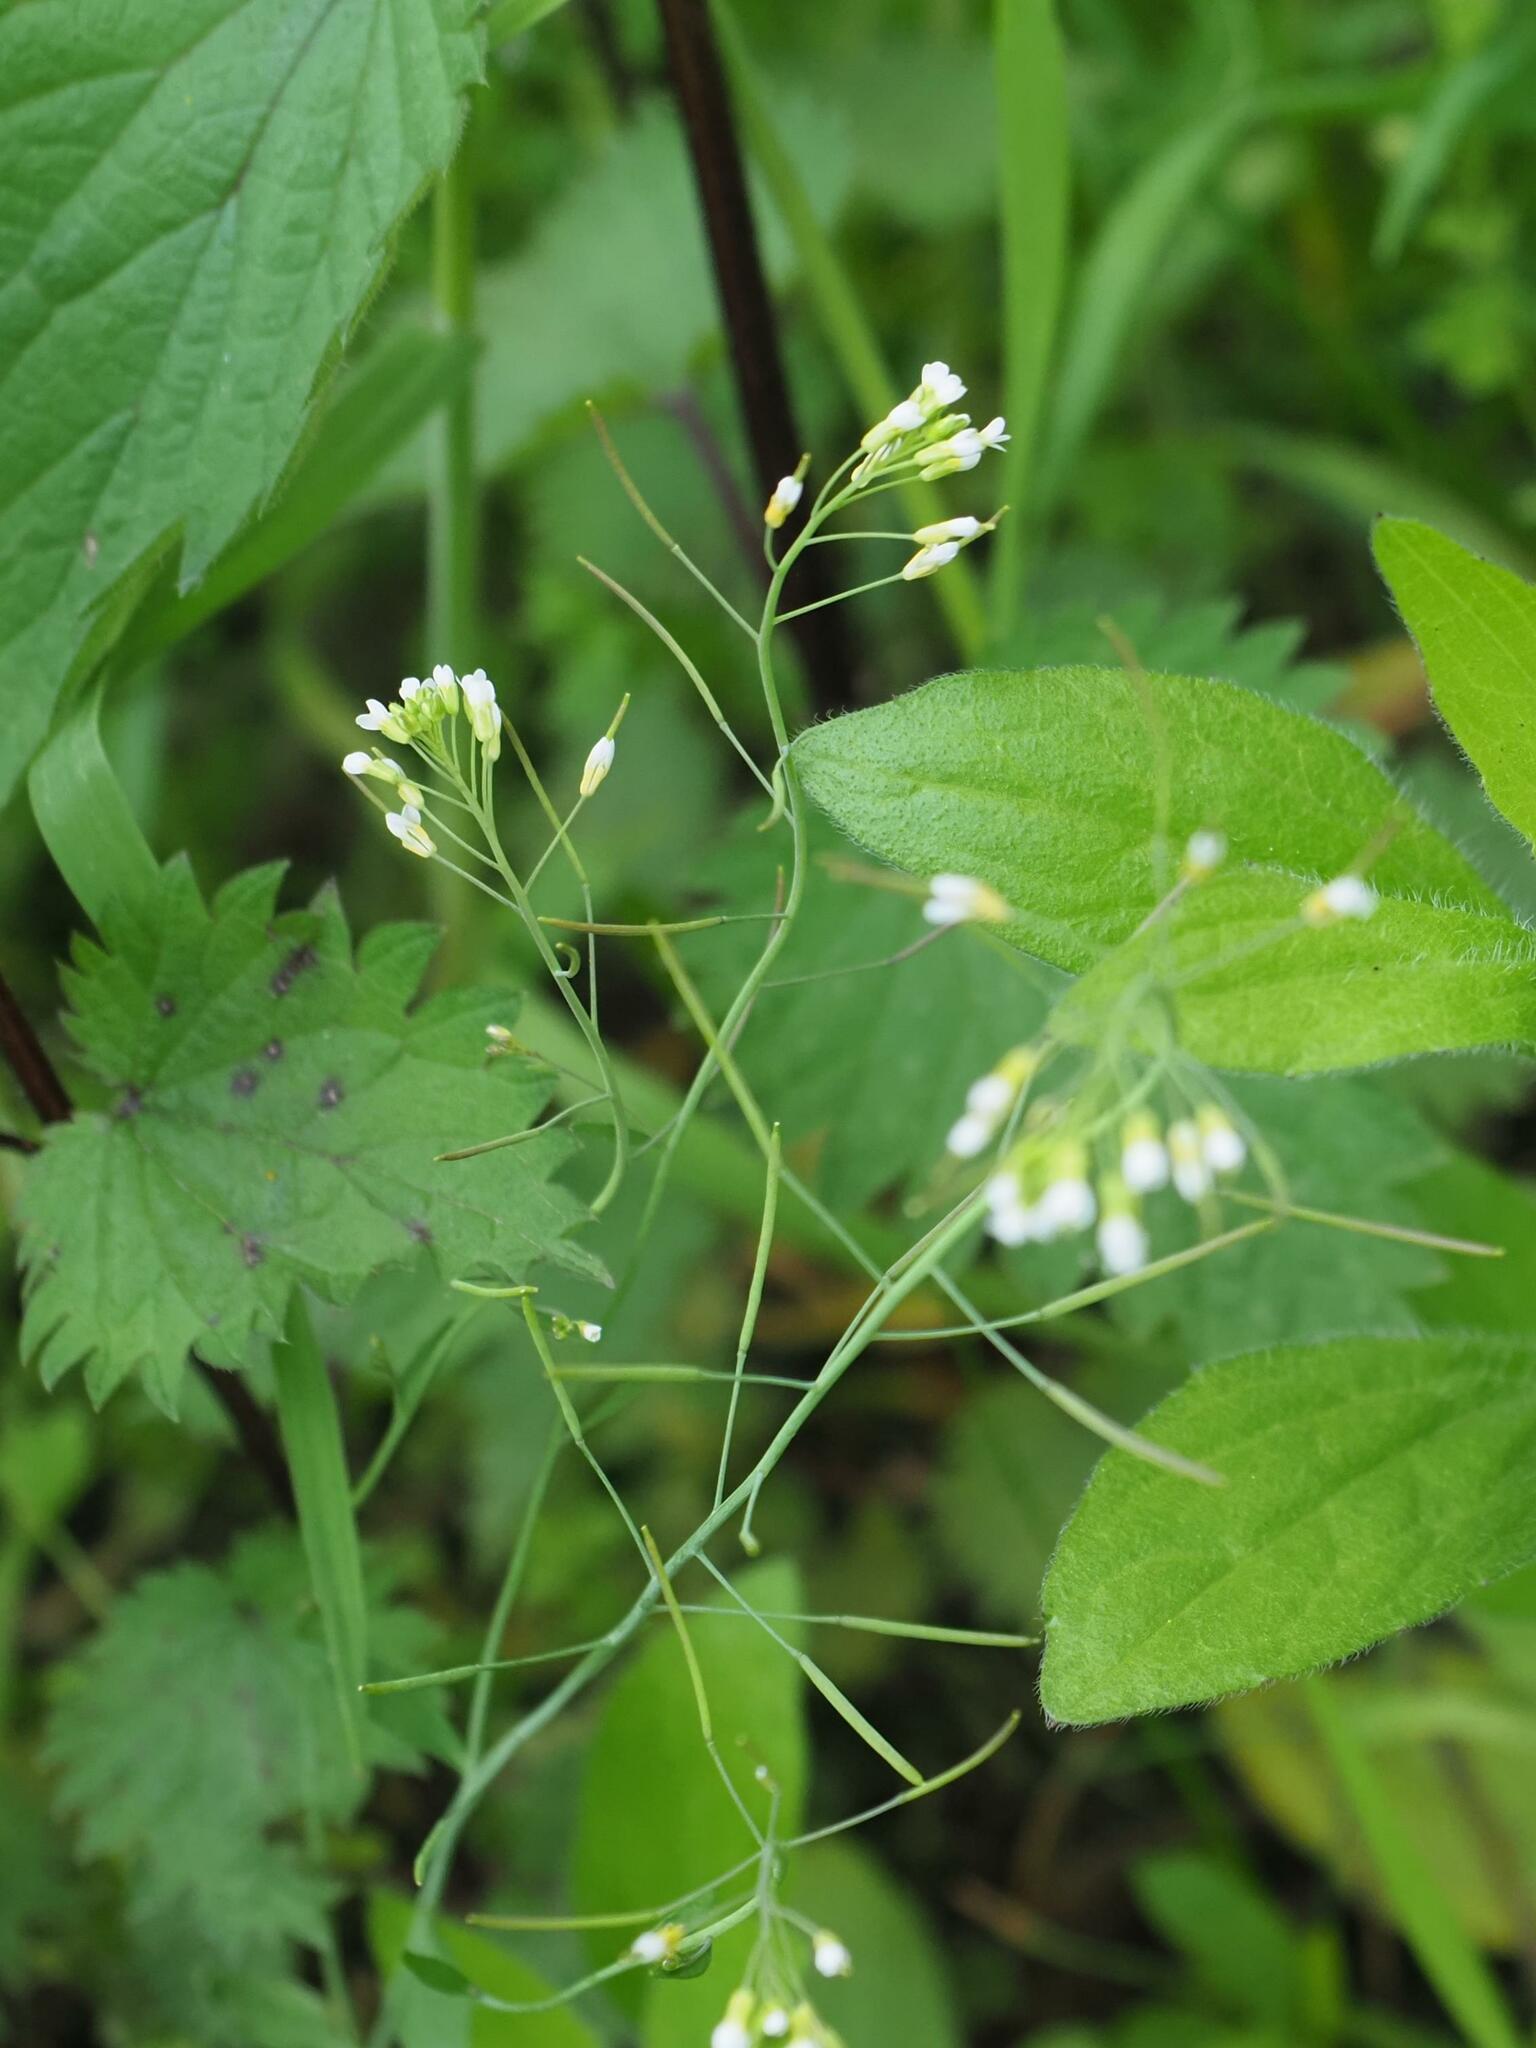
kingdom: Plantae
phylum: Tracheophyta
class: Magnoliopsida
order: Brassicales
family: Brassicaceae
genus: Arabidopsis
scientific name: Arabidopsis thaliana
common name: Thale cress
